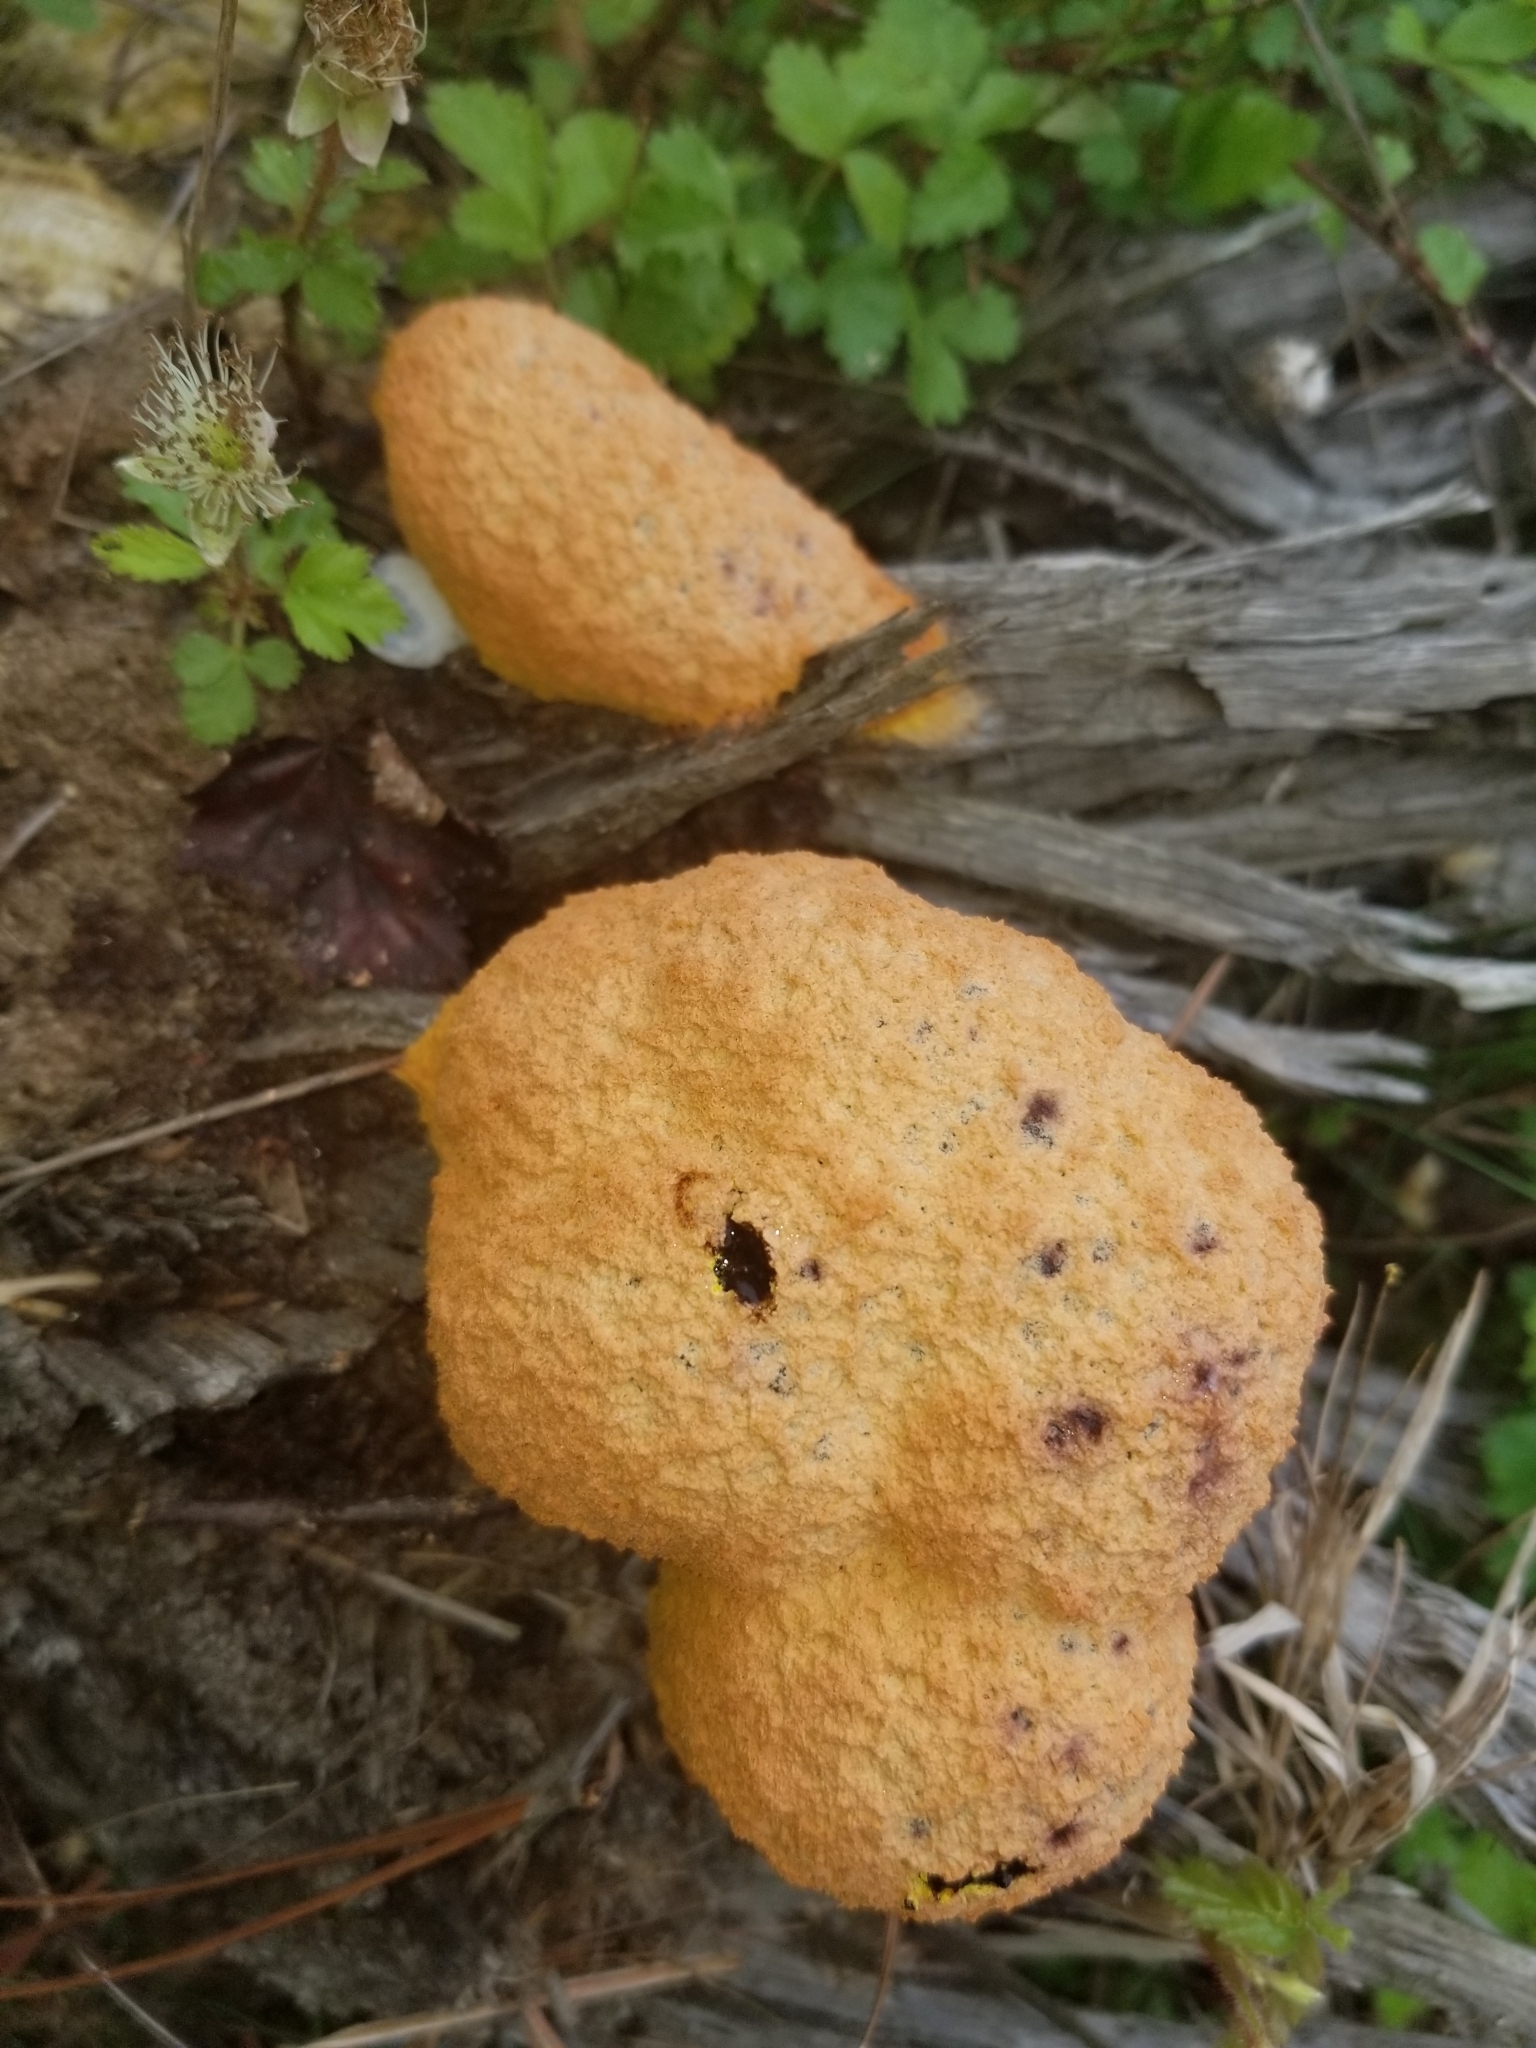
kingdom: Protozoa
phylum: Mycetozoa
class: Myxomycetes
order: Physarales
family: Physaraceae
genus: Fuligo
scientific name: Fuligo septica
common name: Dog vomit slime mold
